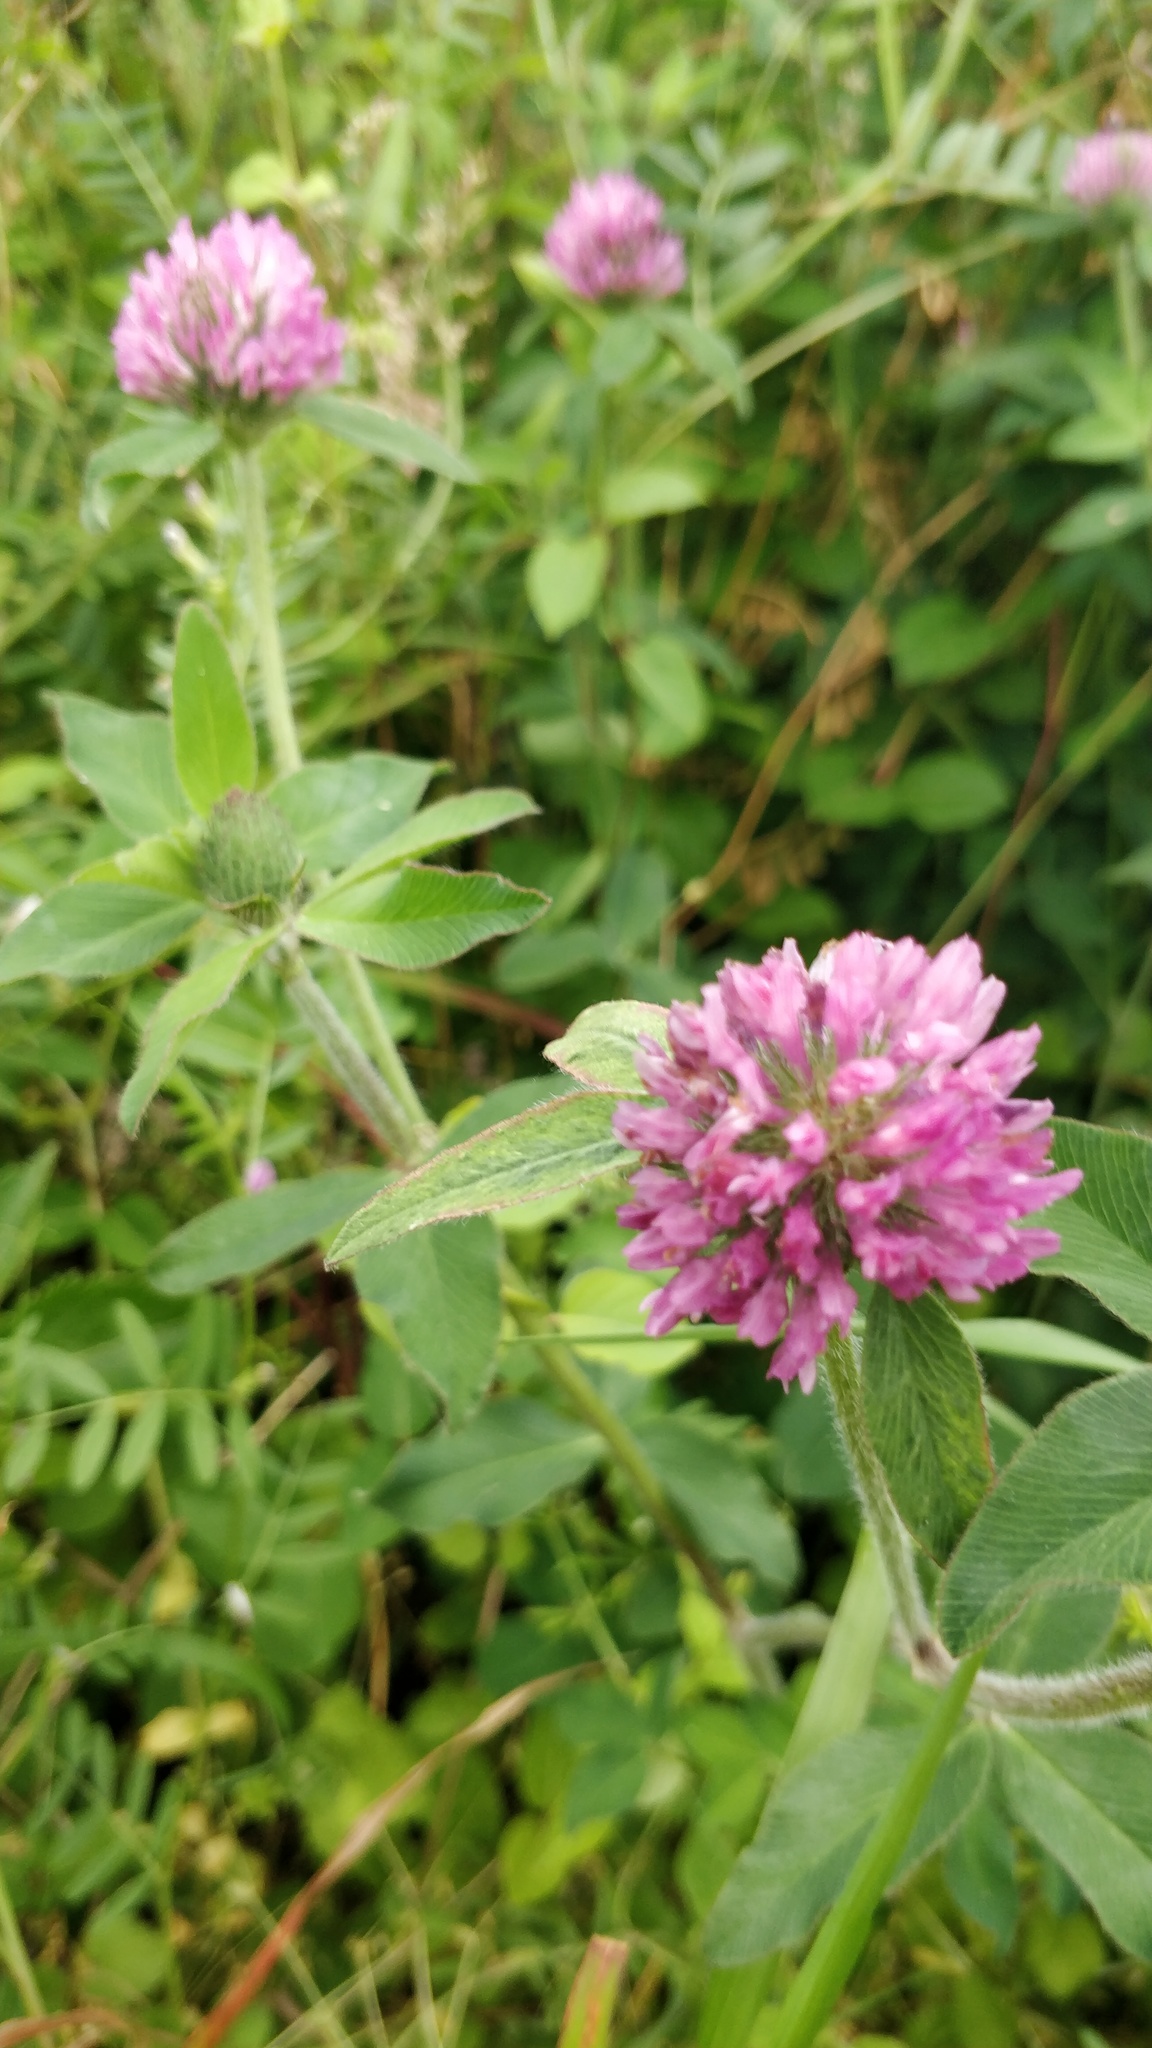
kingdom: Plantae
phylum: Tracheophyta
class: Magnoliopsida
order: Fabales
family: Fabaceae
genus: Trifolium
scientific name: Trifolium pratense
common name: Red clover
